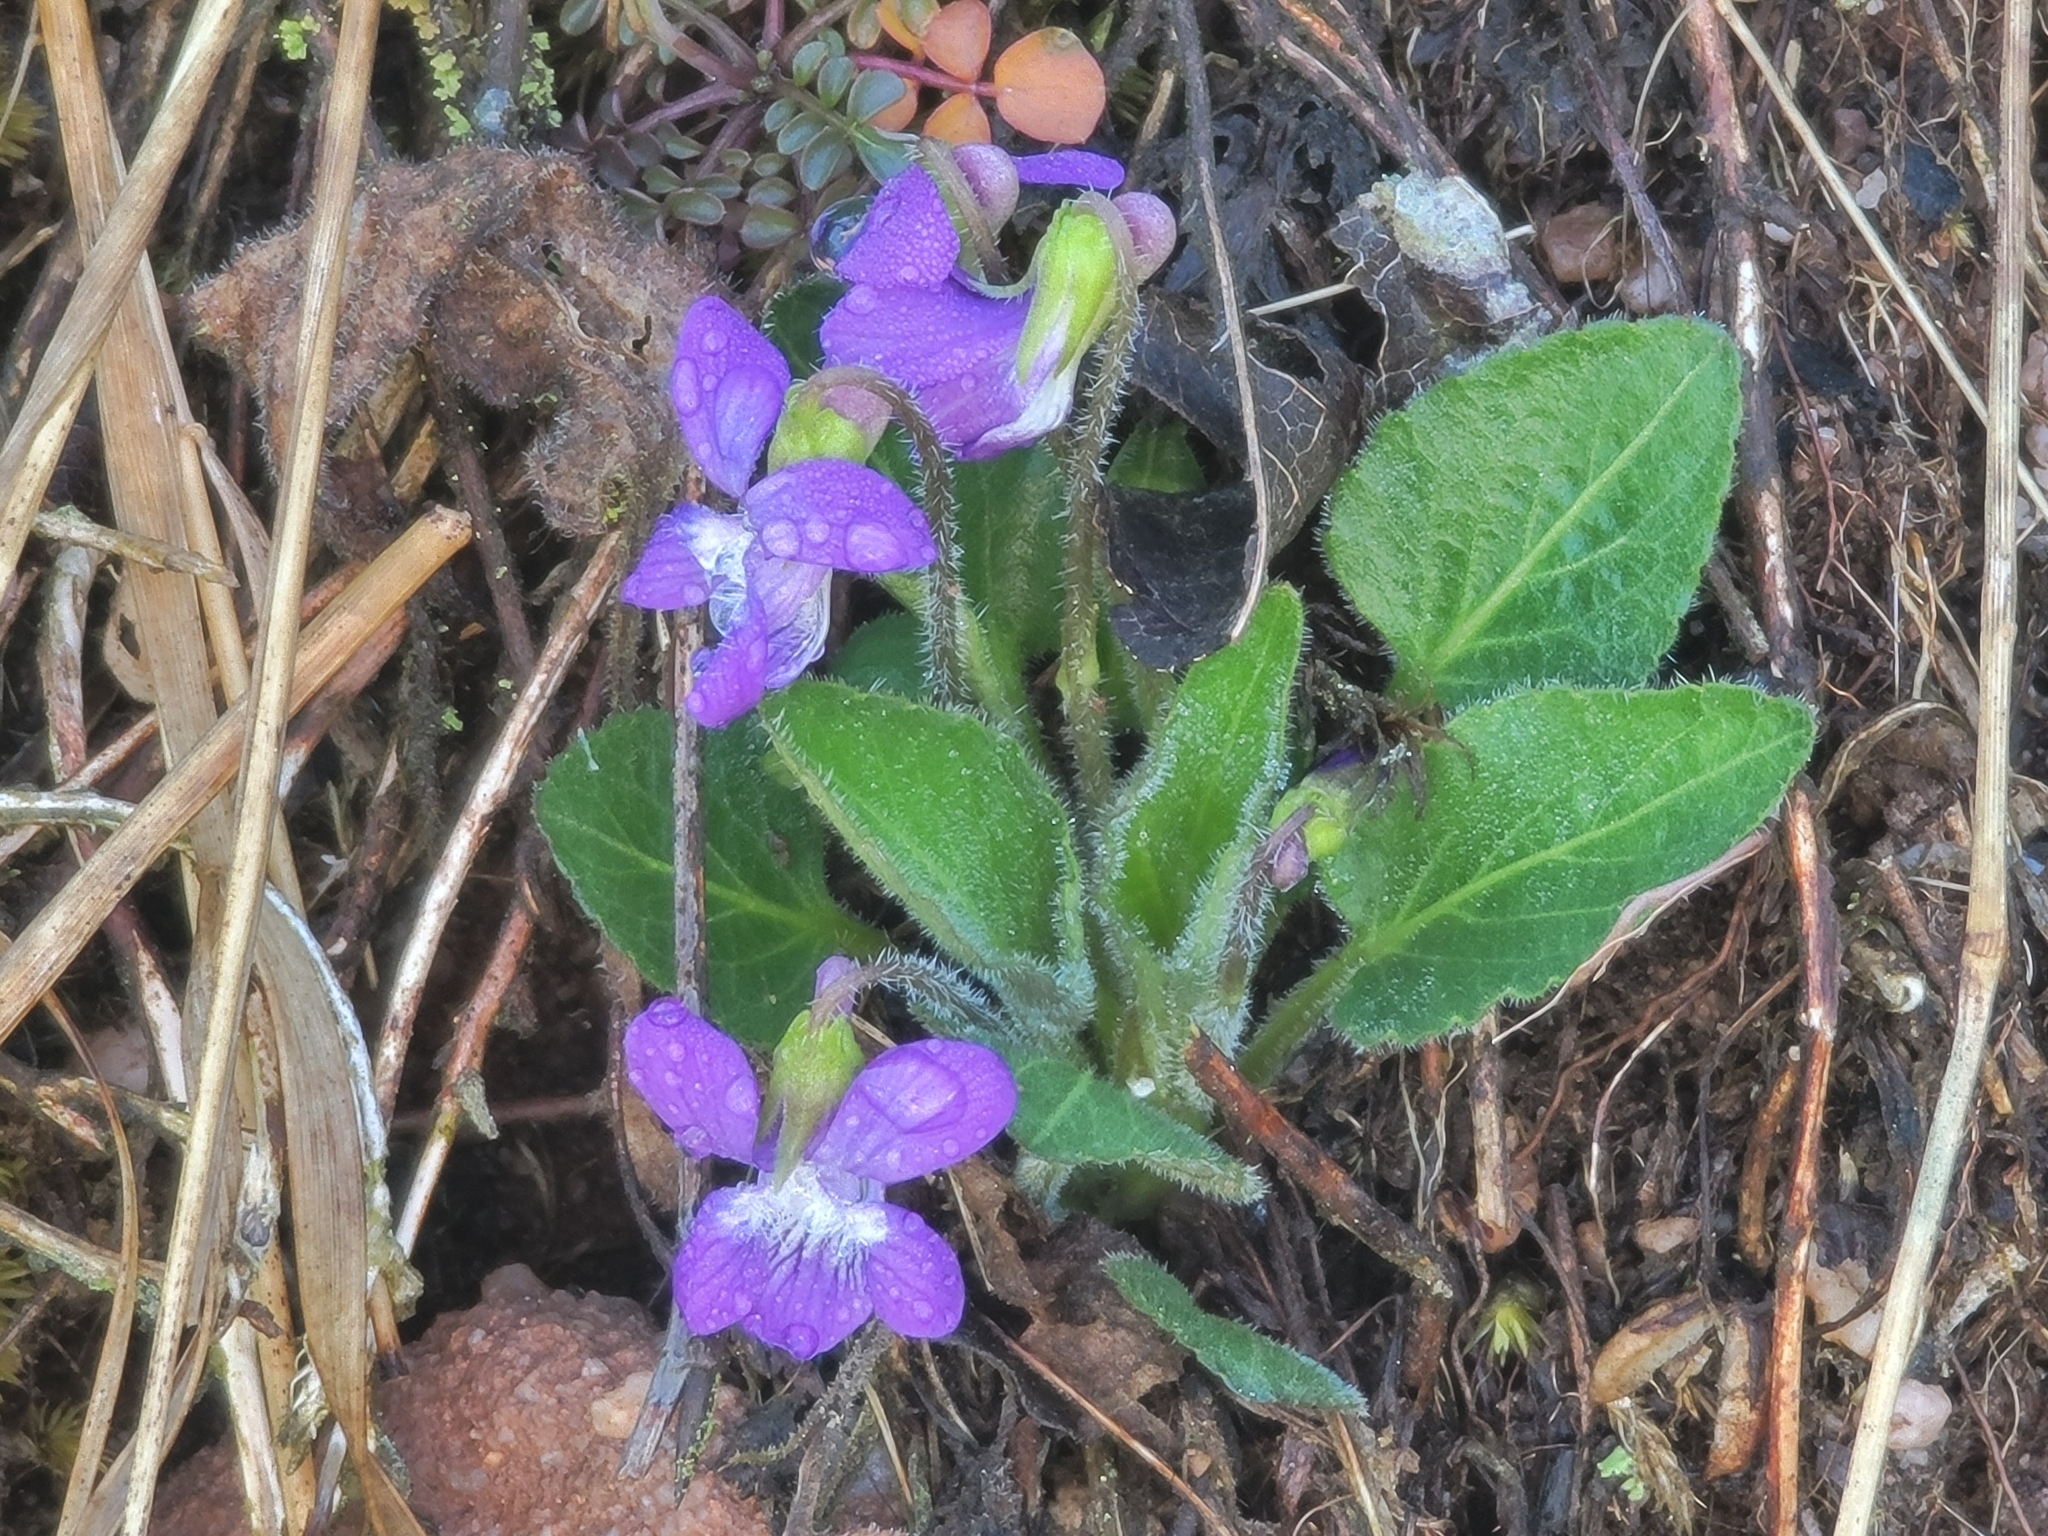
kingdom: Plantae
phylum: Tracheophyta
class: Magnoliopsida
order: Malpighiales
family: Violaceae
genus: Viola
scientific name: Viola fimbriatula
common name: Sand violet
